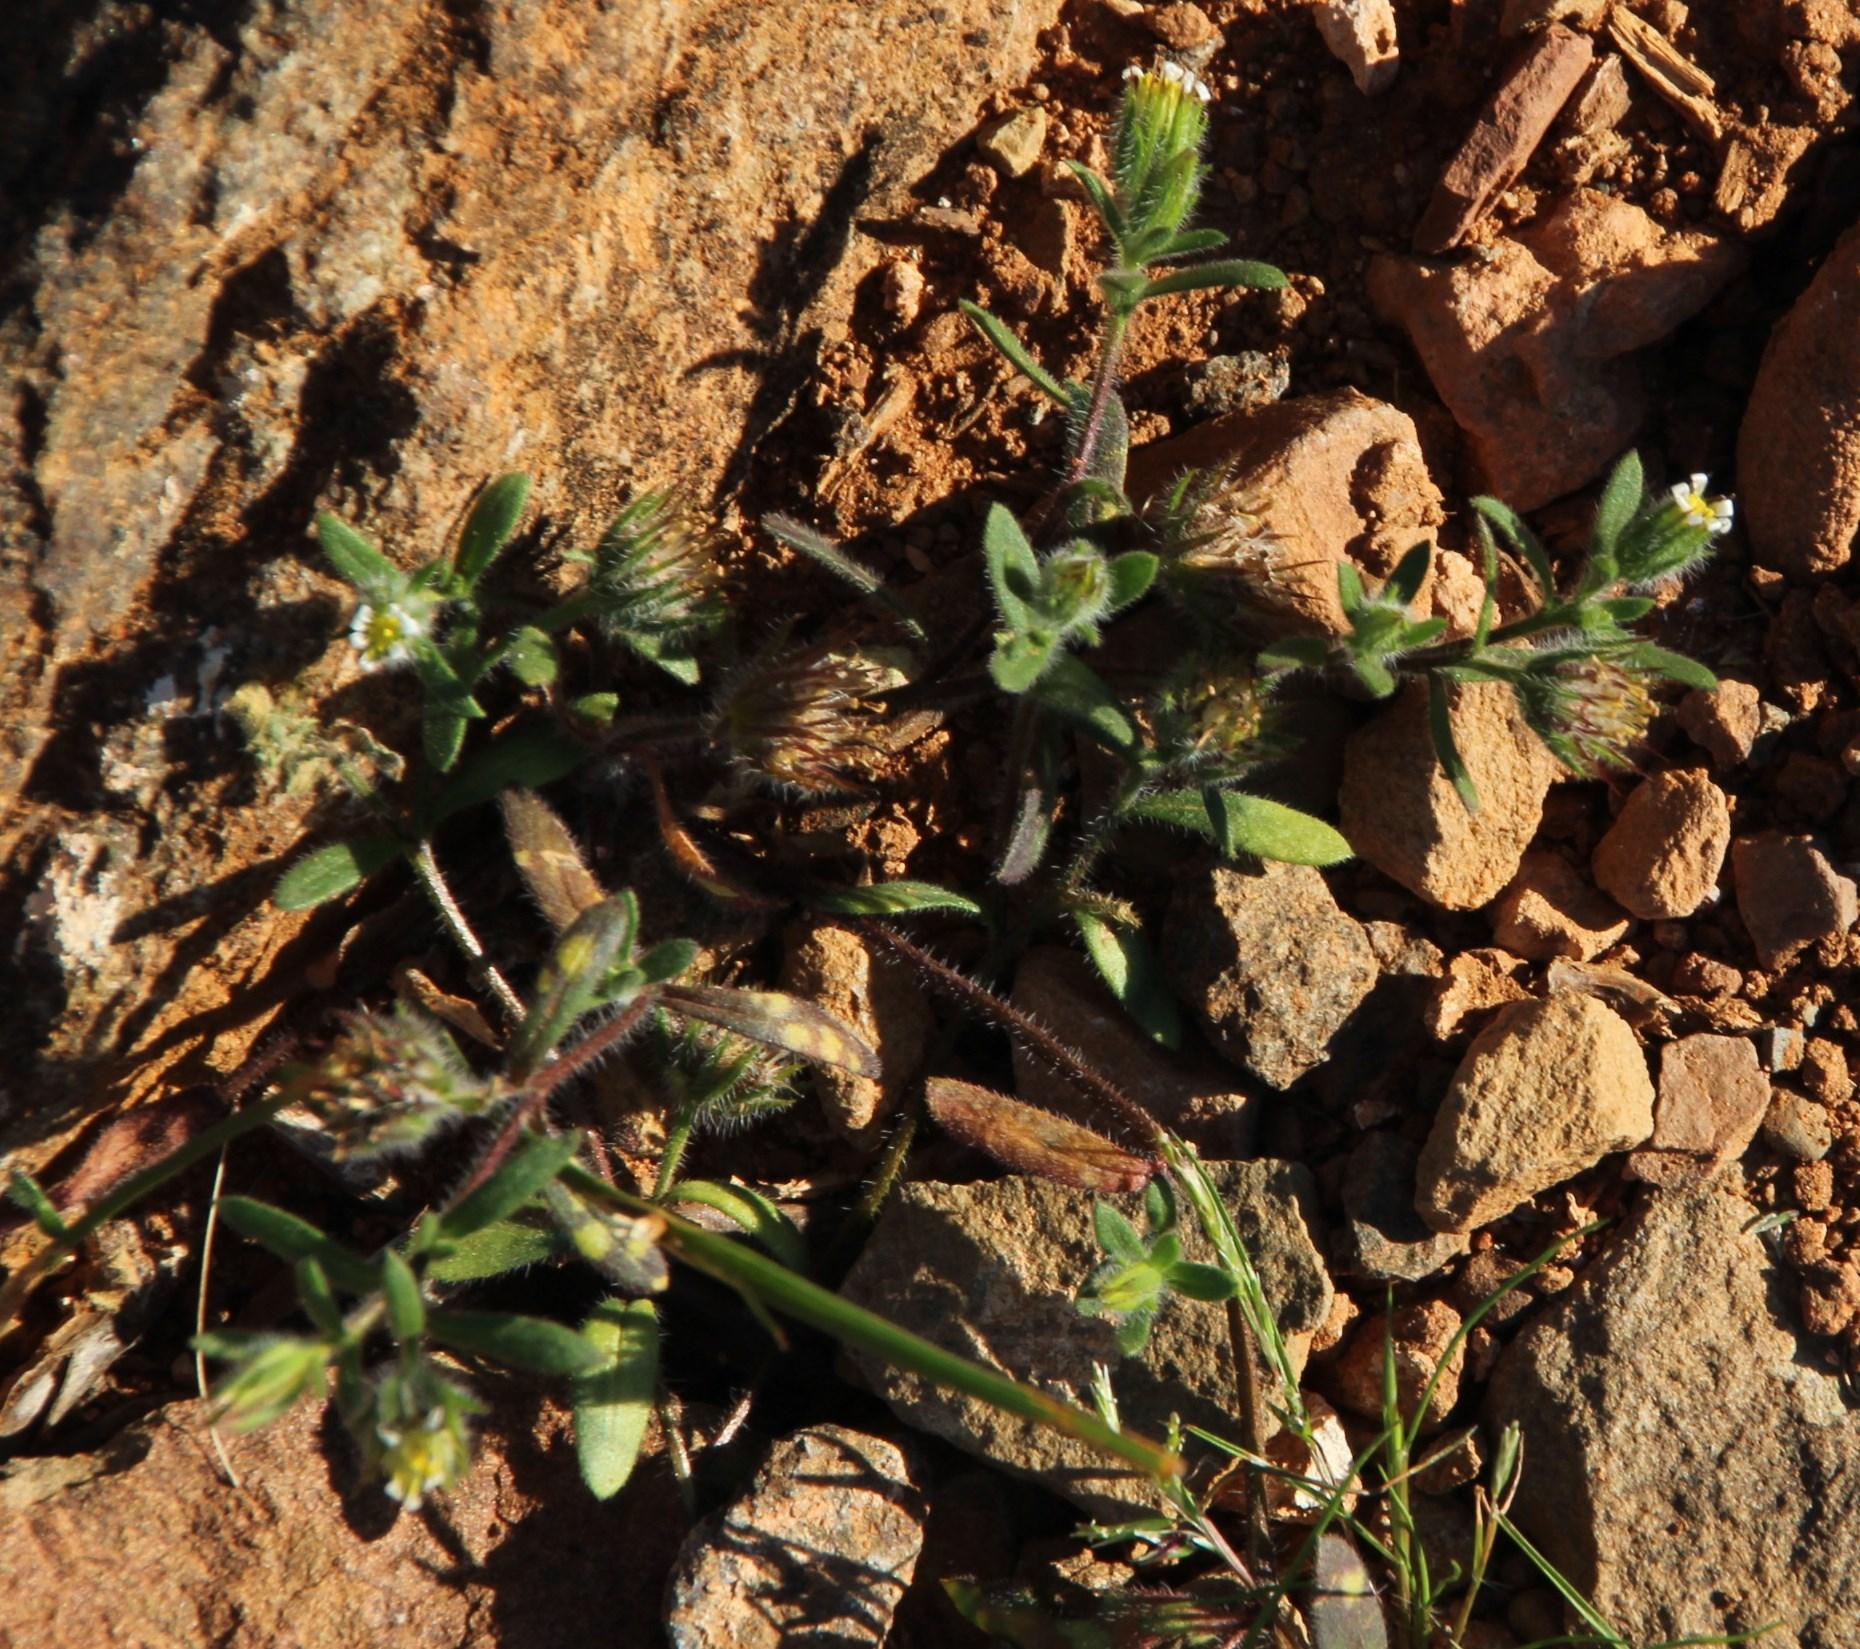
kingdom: Plantae
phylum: Tracheophyta
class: Magnoliopsida
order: Asterales
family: Asteraceae
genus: Amellus
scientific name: Amellus microglossus
